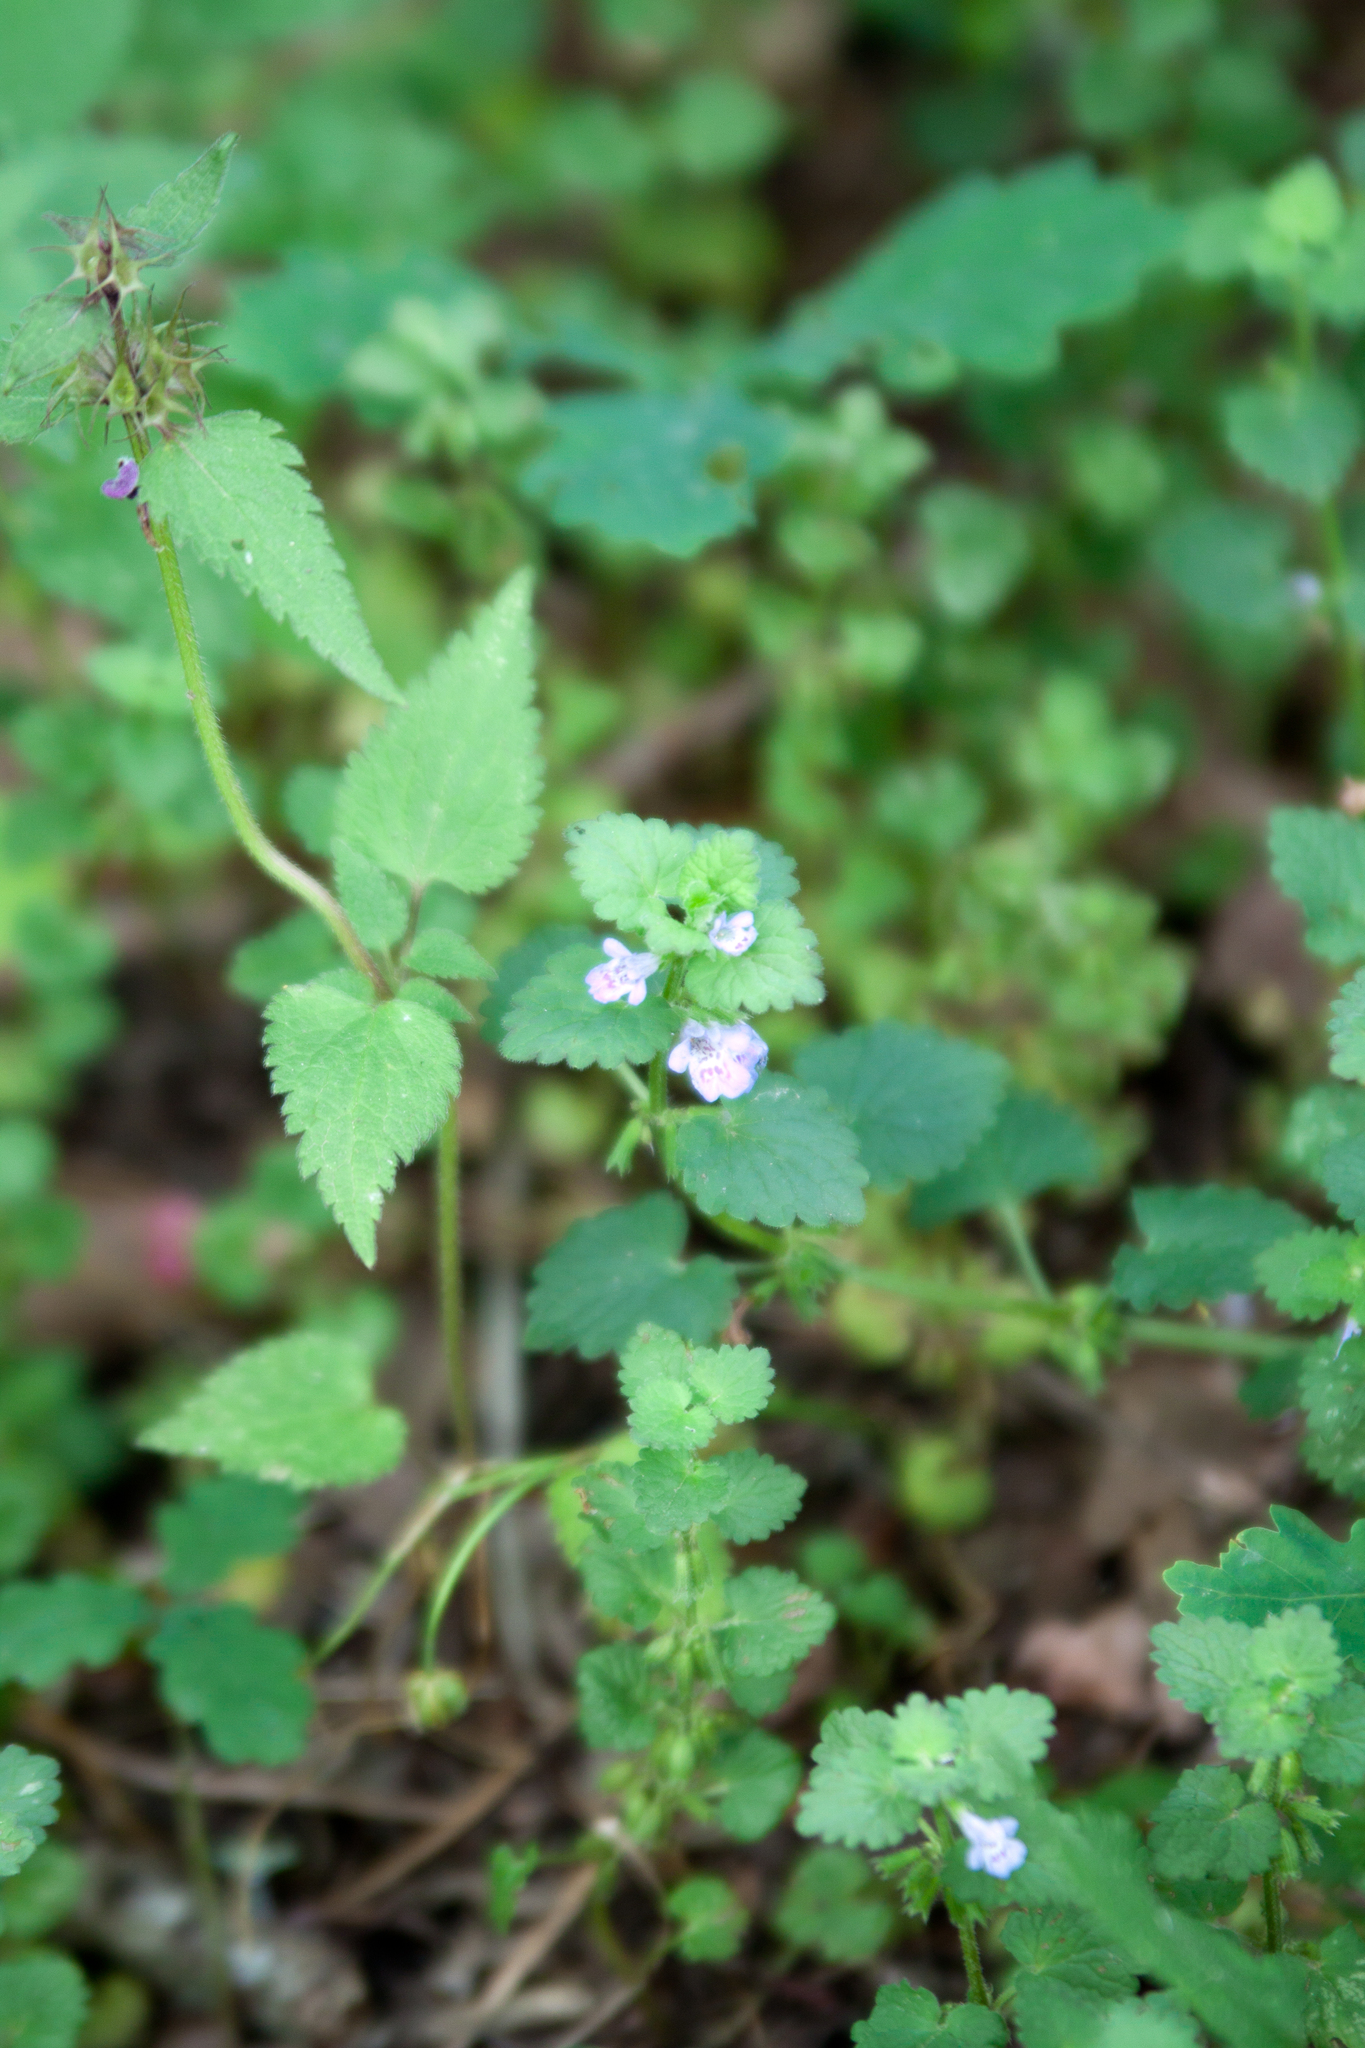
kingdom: Plantae
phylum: Tracheophyta
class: Magnoliopsida
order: Lamiales
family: Lamiaceae
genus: Glechoma
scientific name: Glechoma hederacea
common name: Ground ivy
